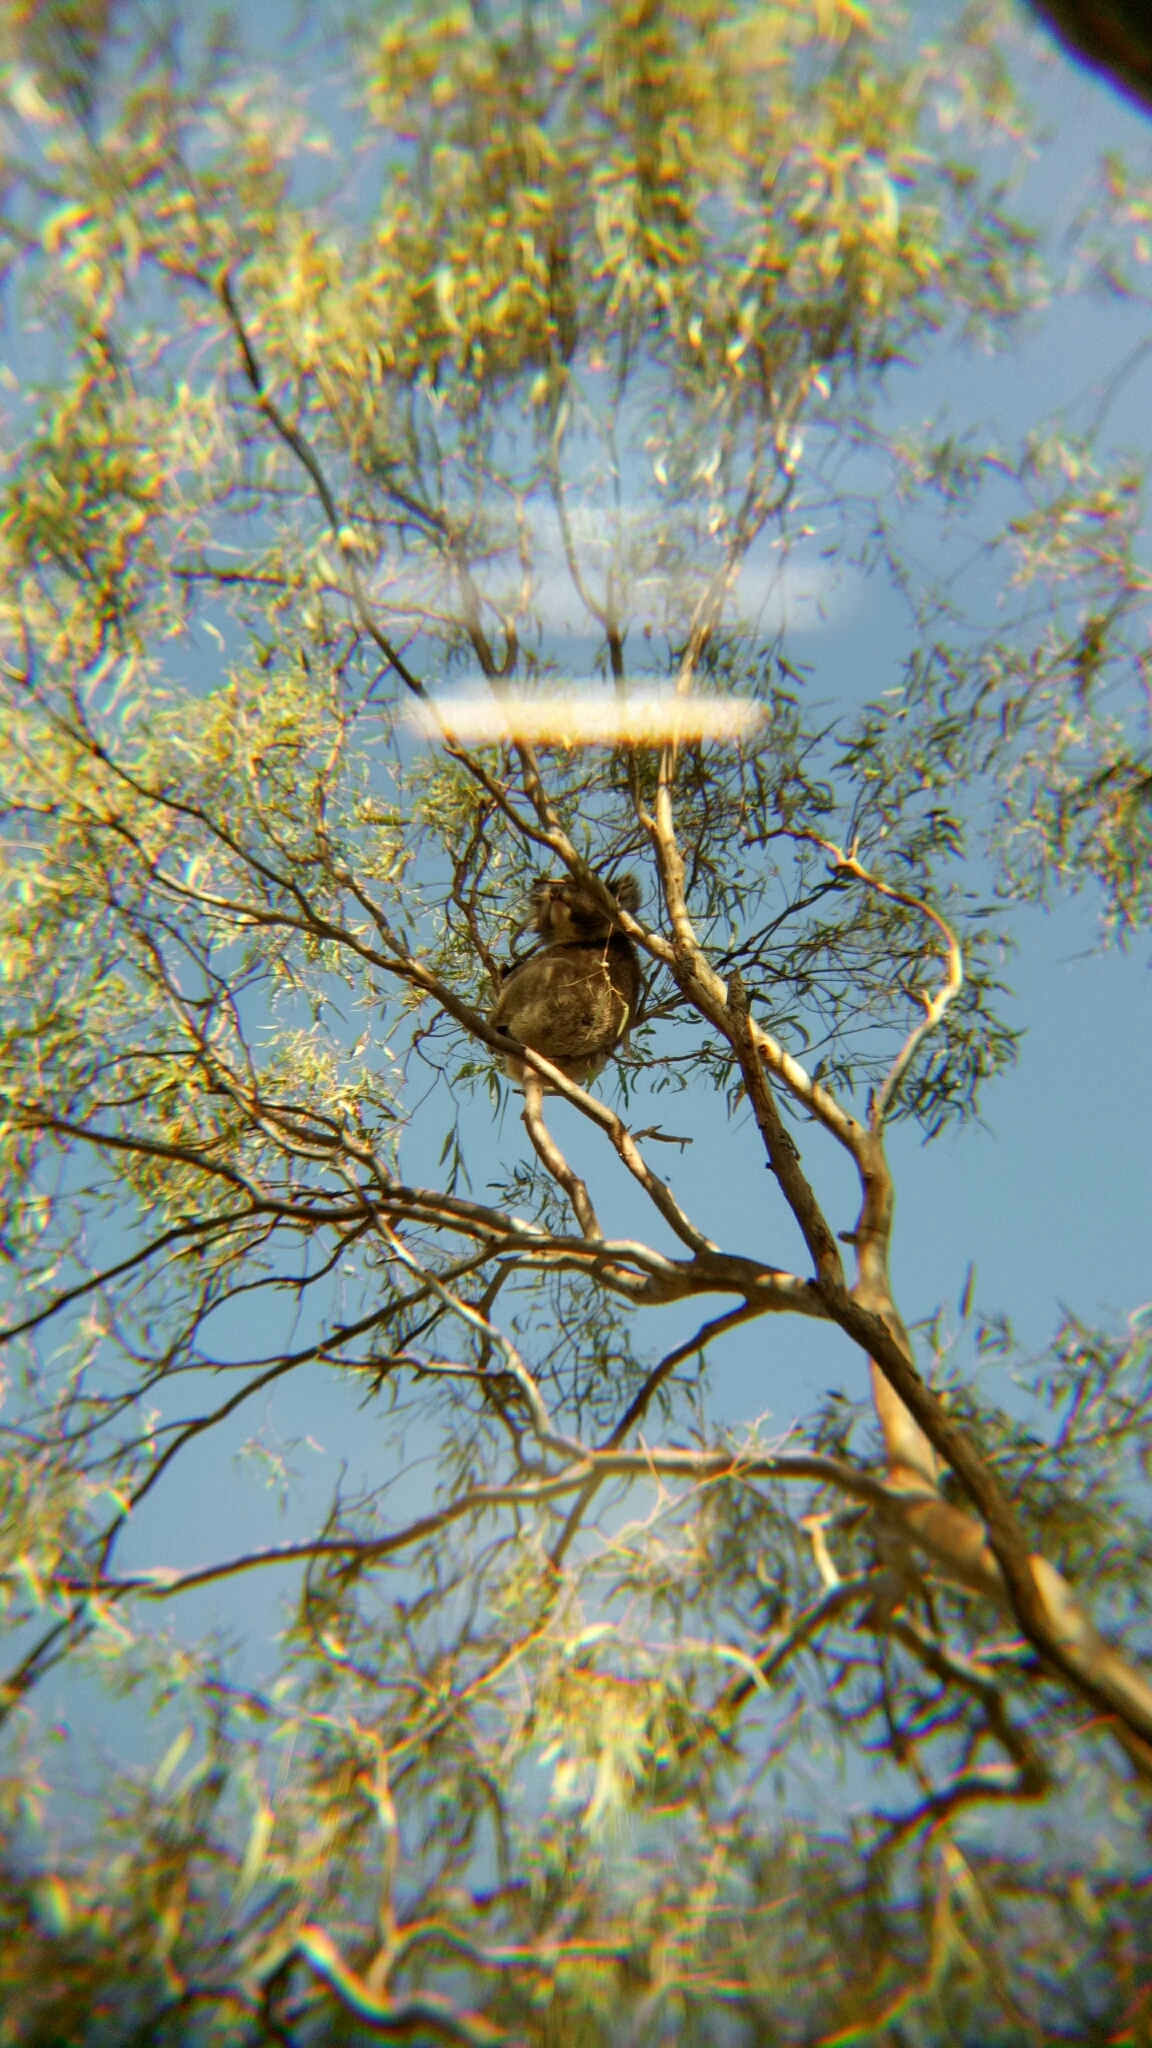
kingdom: Animalia
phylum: Chordata
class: Mammalia
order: Diprotodontia
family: Phascolarctidae
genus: Phascolarctos
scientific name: Phascolarctos cinereus
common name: Koala
